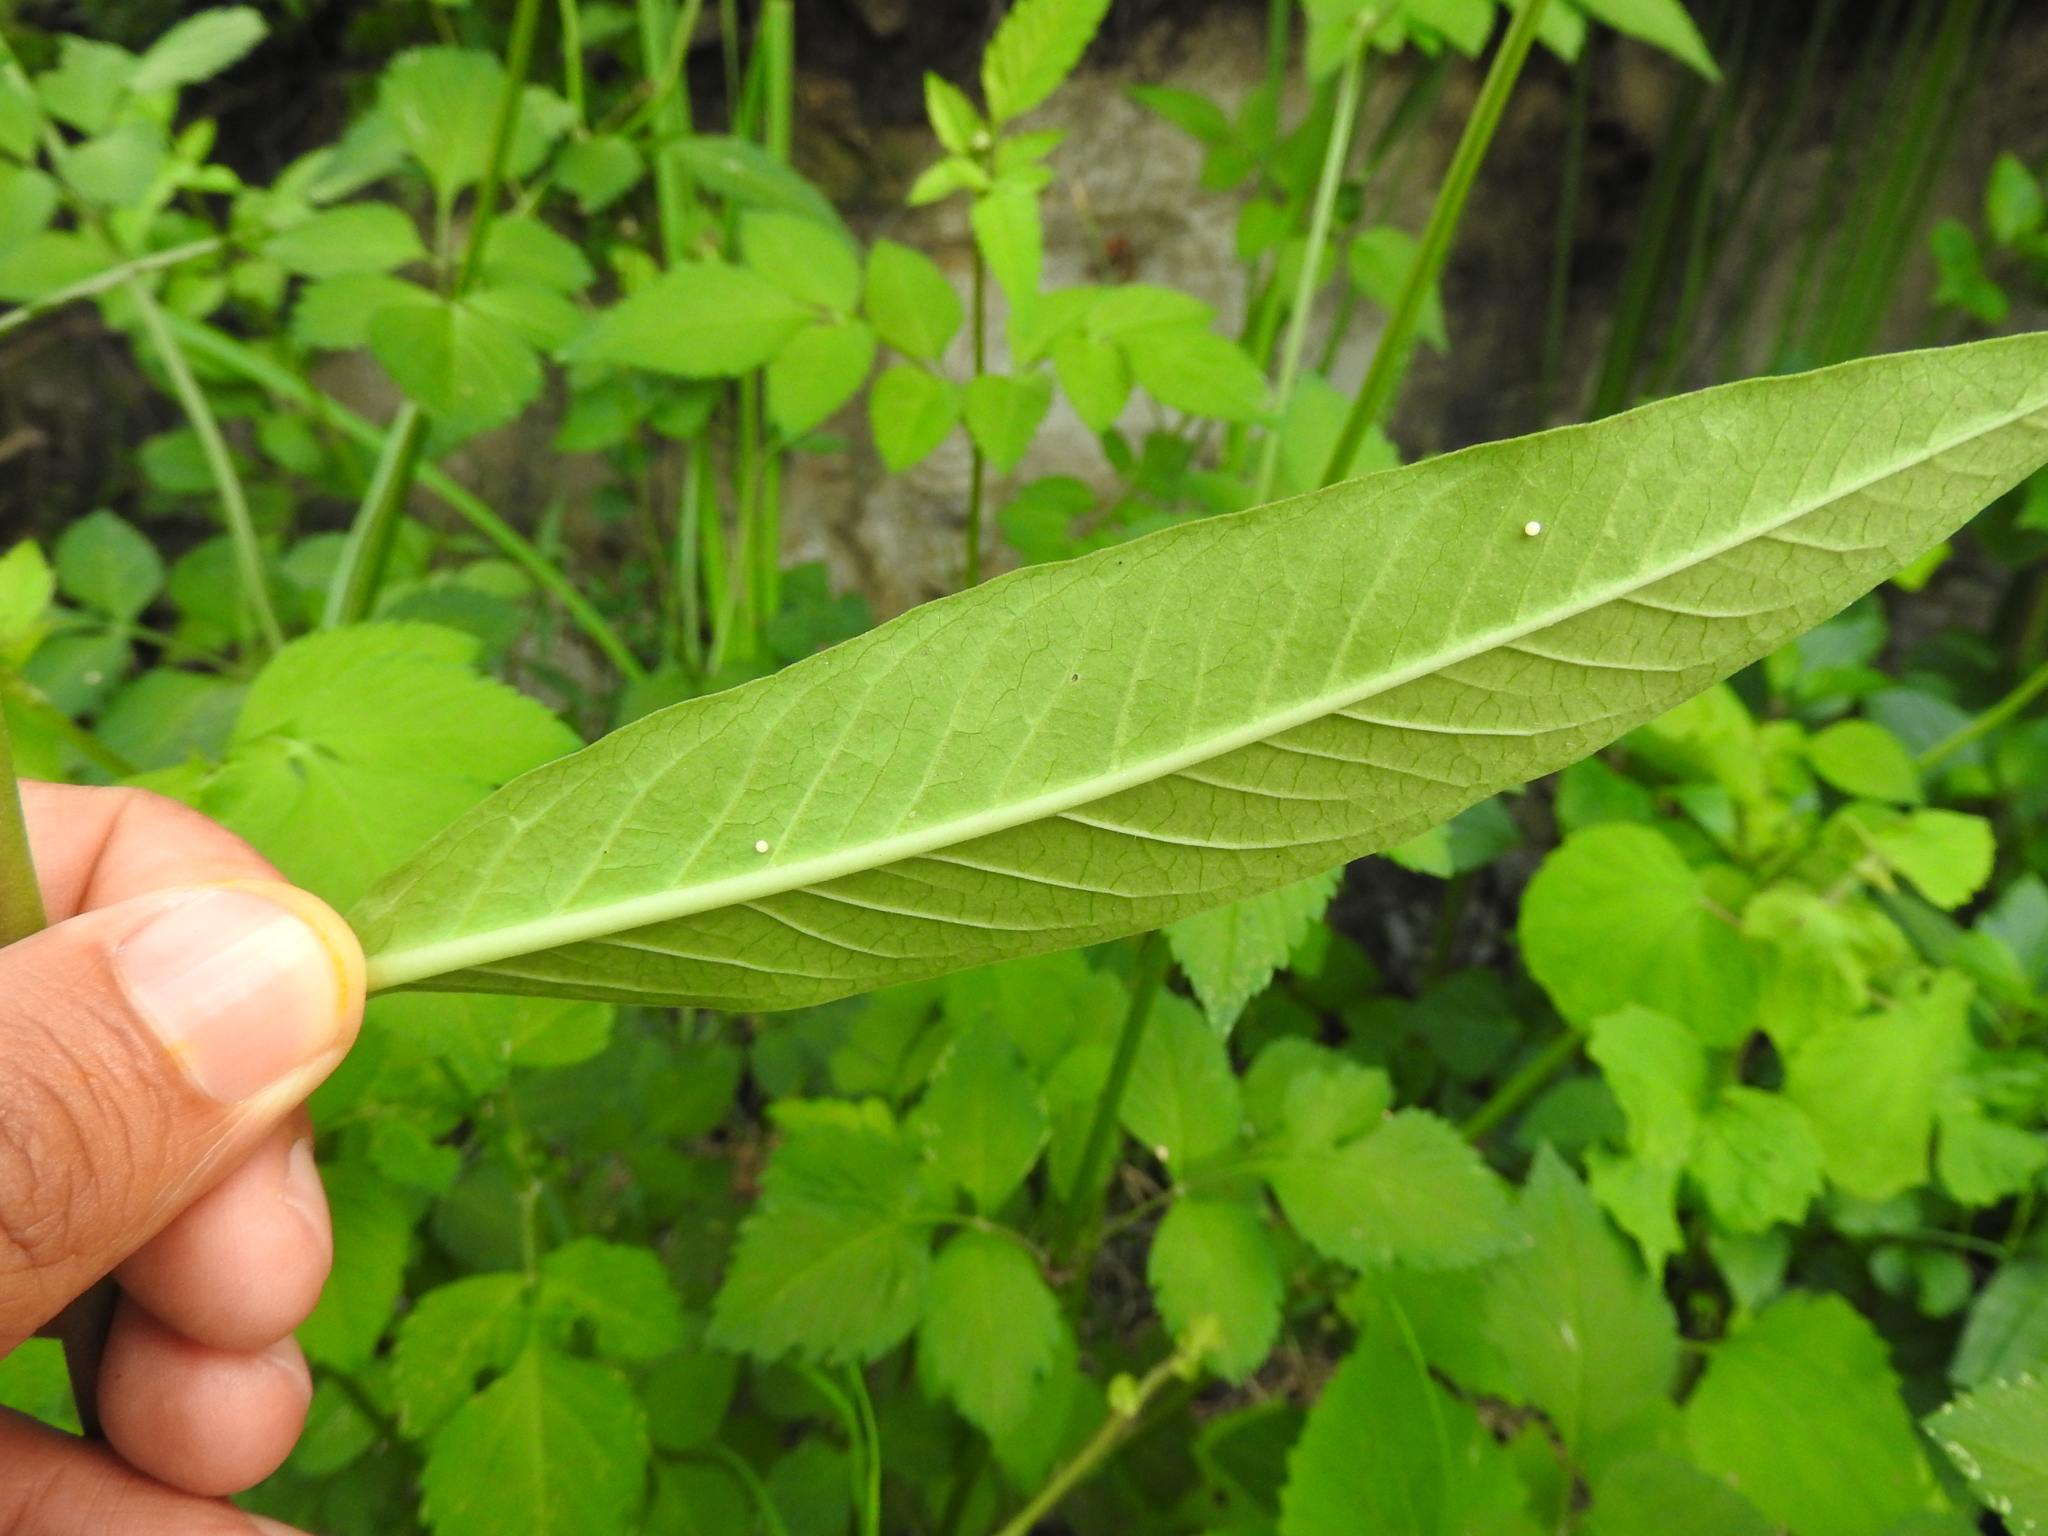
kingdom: Animalia
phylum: Arthropoda
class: Insecta
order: Lepidoptera
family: Nymphalidae
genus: Danaus
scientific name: Danaus plexippus
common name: Monarch
